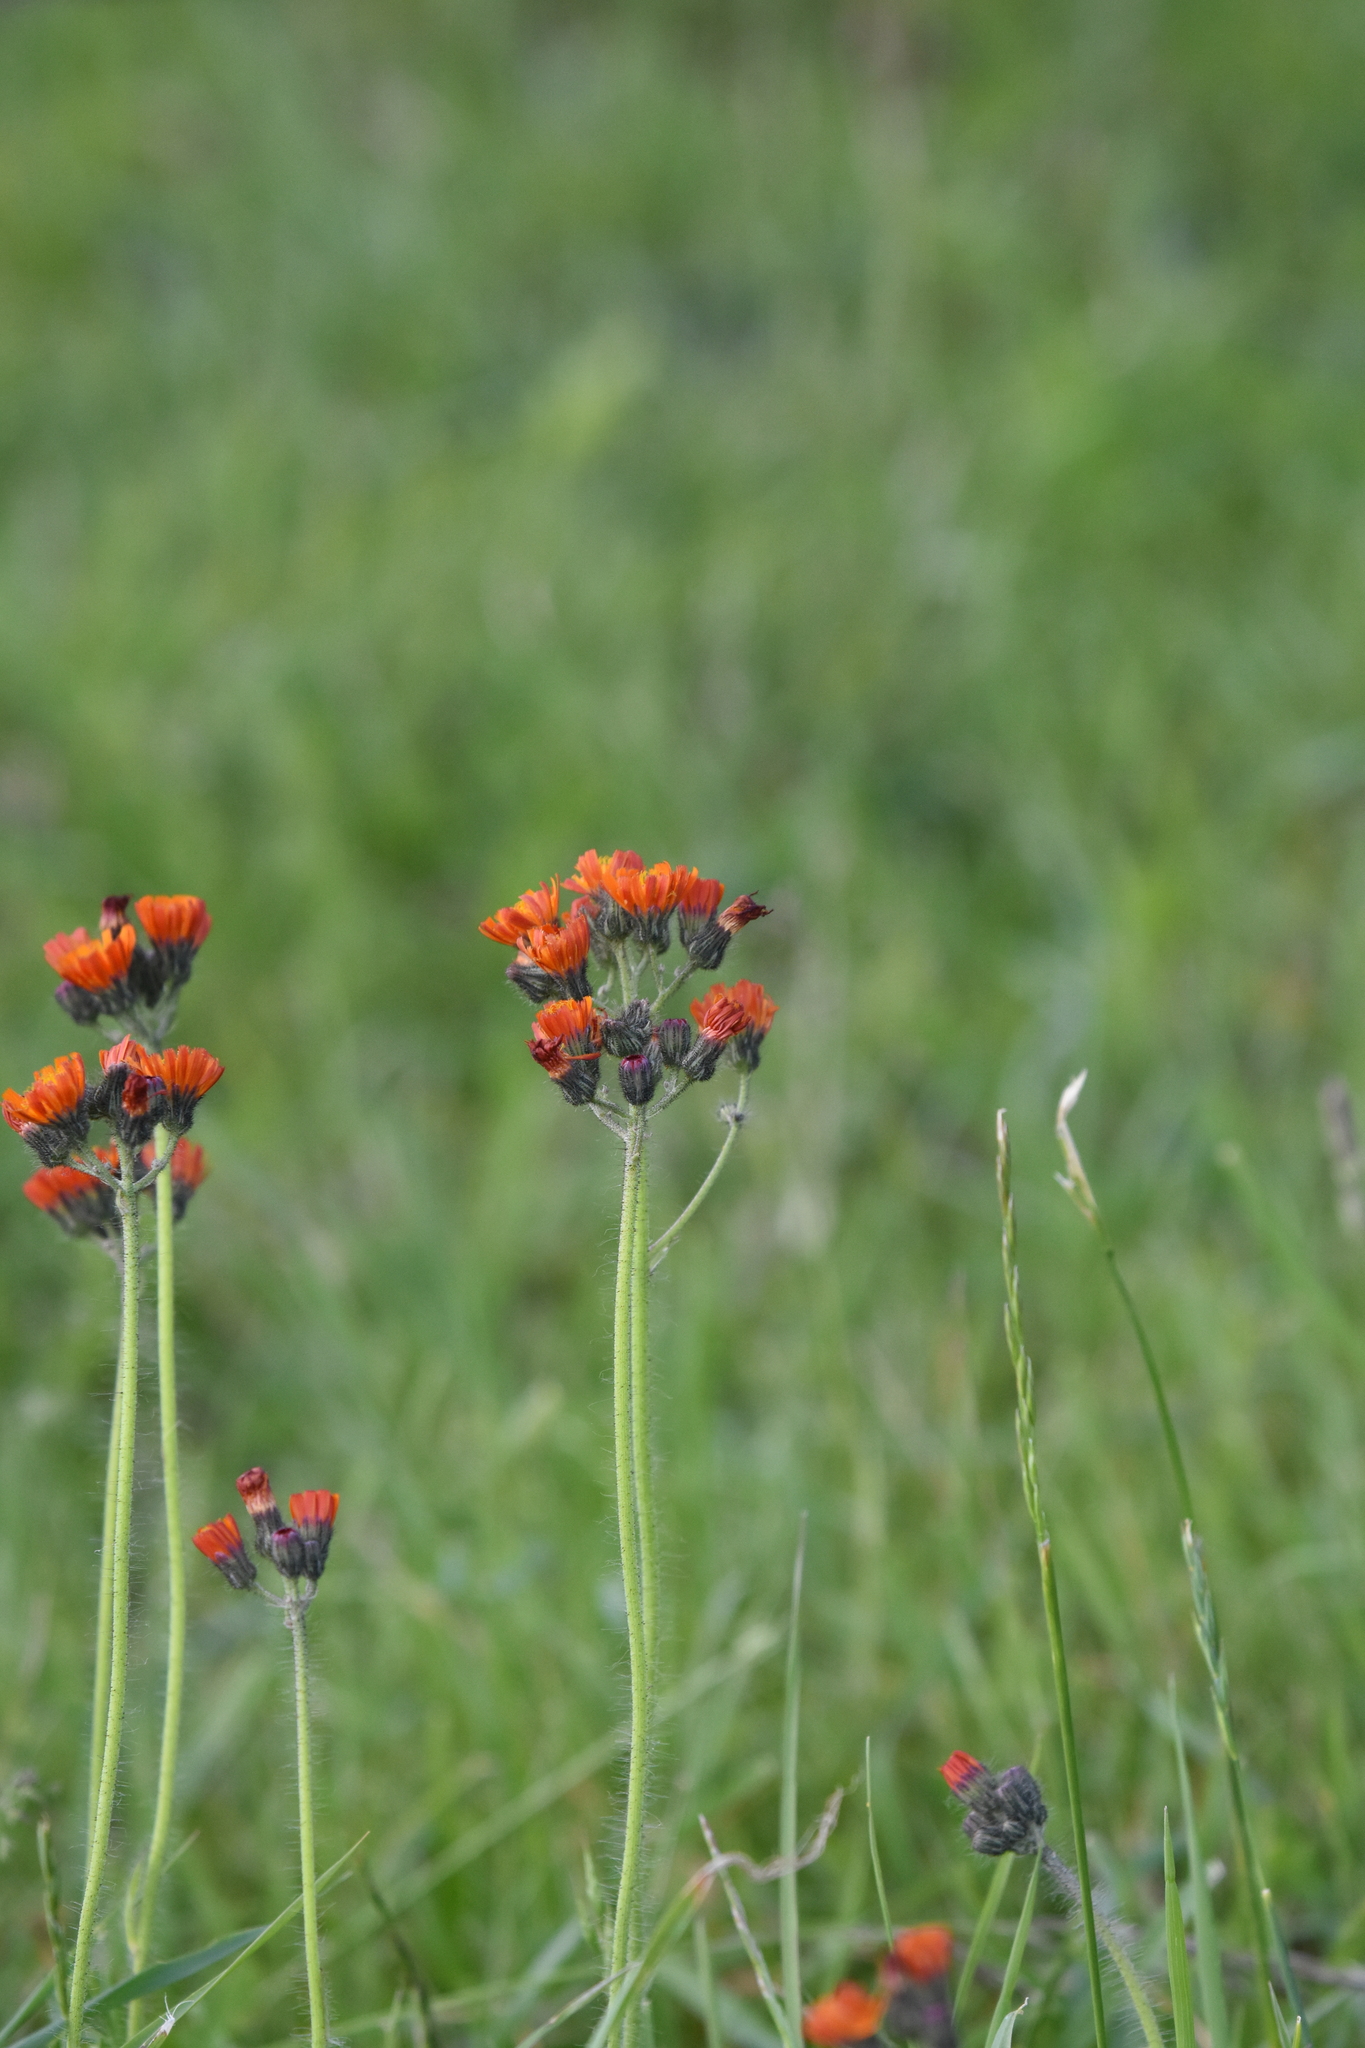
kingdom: Plantae
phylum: Tracheophyta
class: Magnoliopsida
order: Asterales
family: Asteraceae
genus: Pilosella
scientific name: Pilosella aurantiaca
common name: Fox-and-cubs
